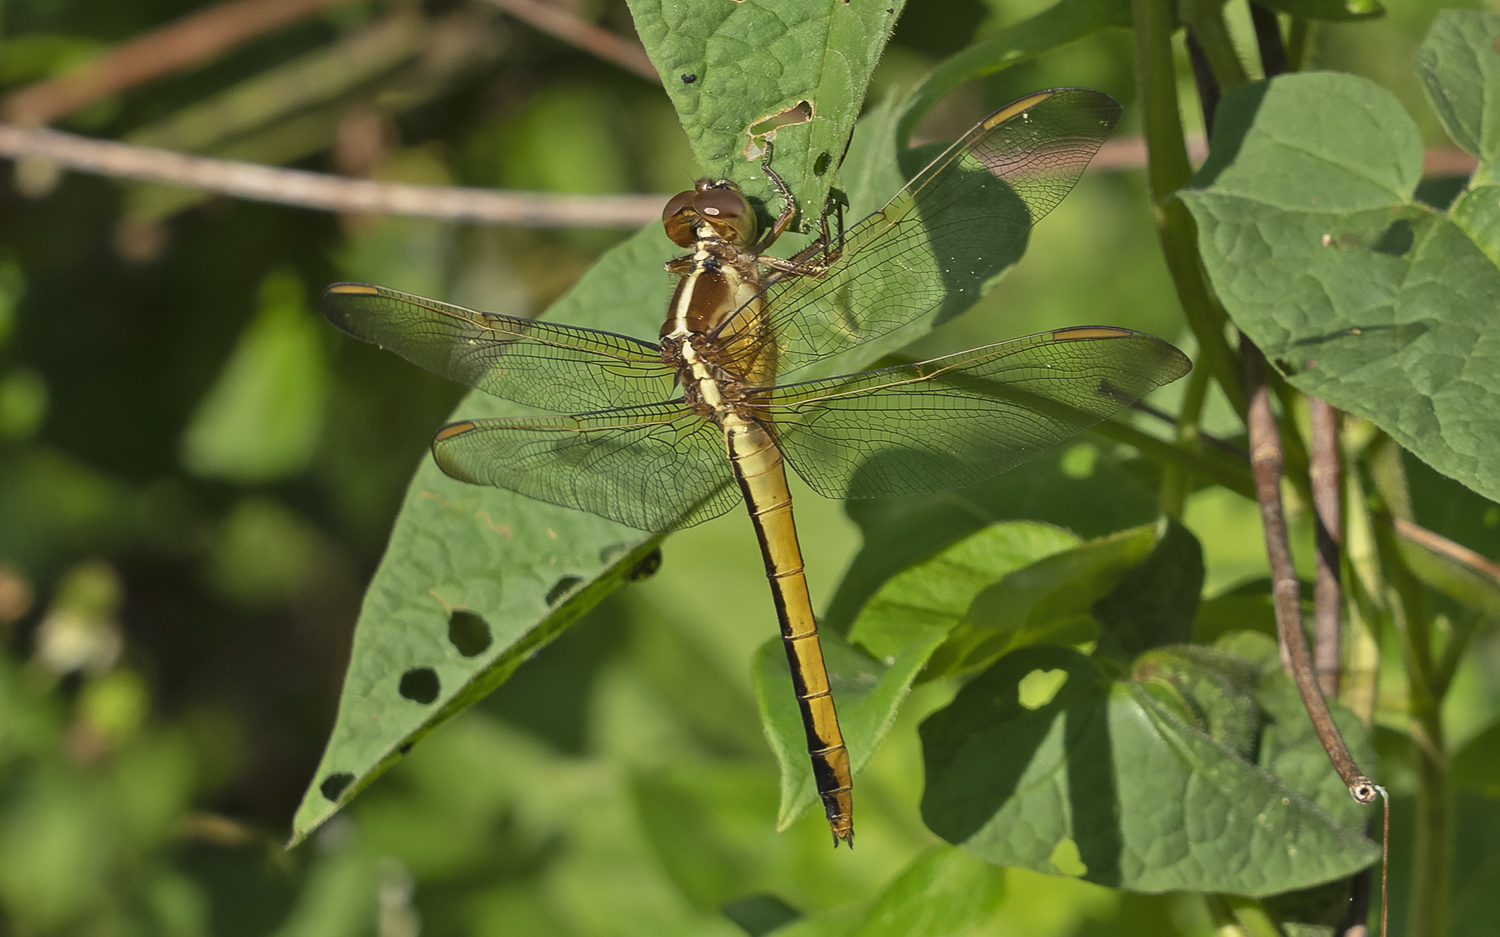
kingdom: Animalia
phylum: Arthropoda
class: Insecta
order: Odonata
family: Libellulidae
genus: Libellula
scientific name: Libellula needhami
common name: Needham's skimmer
